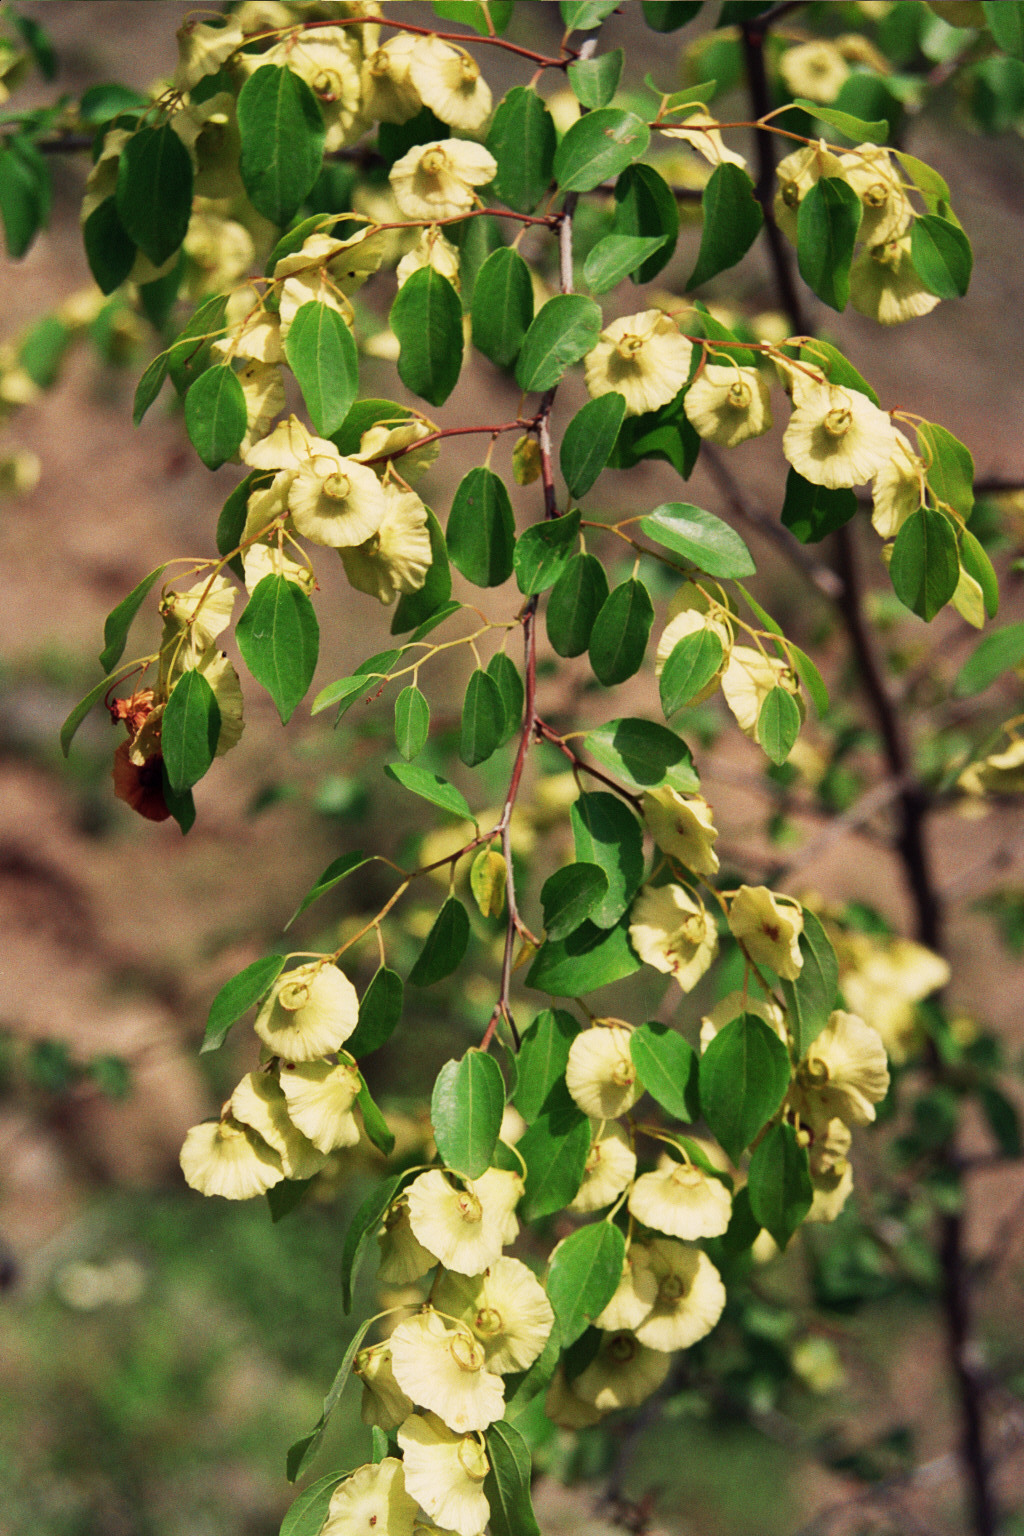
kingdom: Plantae
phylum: Tracheophyta
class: Magnoliopsida
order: Rosales
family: Rhamnaceae
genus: Paliurus
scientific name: Paliurus spina-christi
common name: Jeruselem thorn
